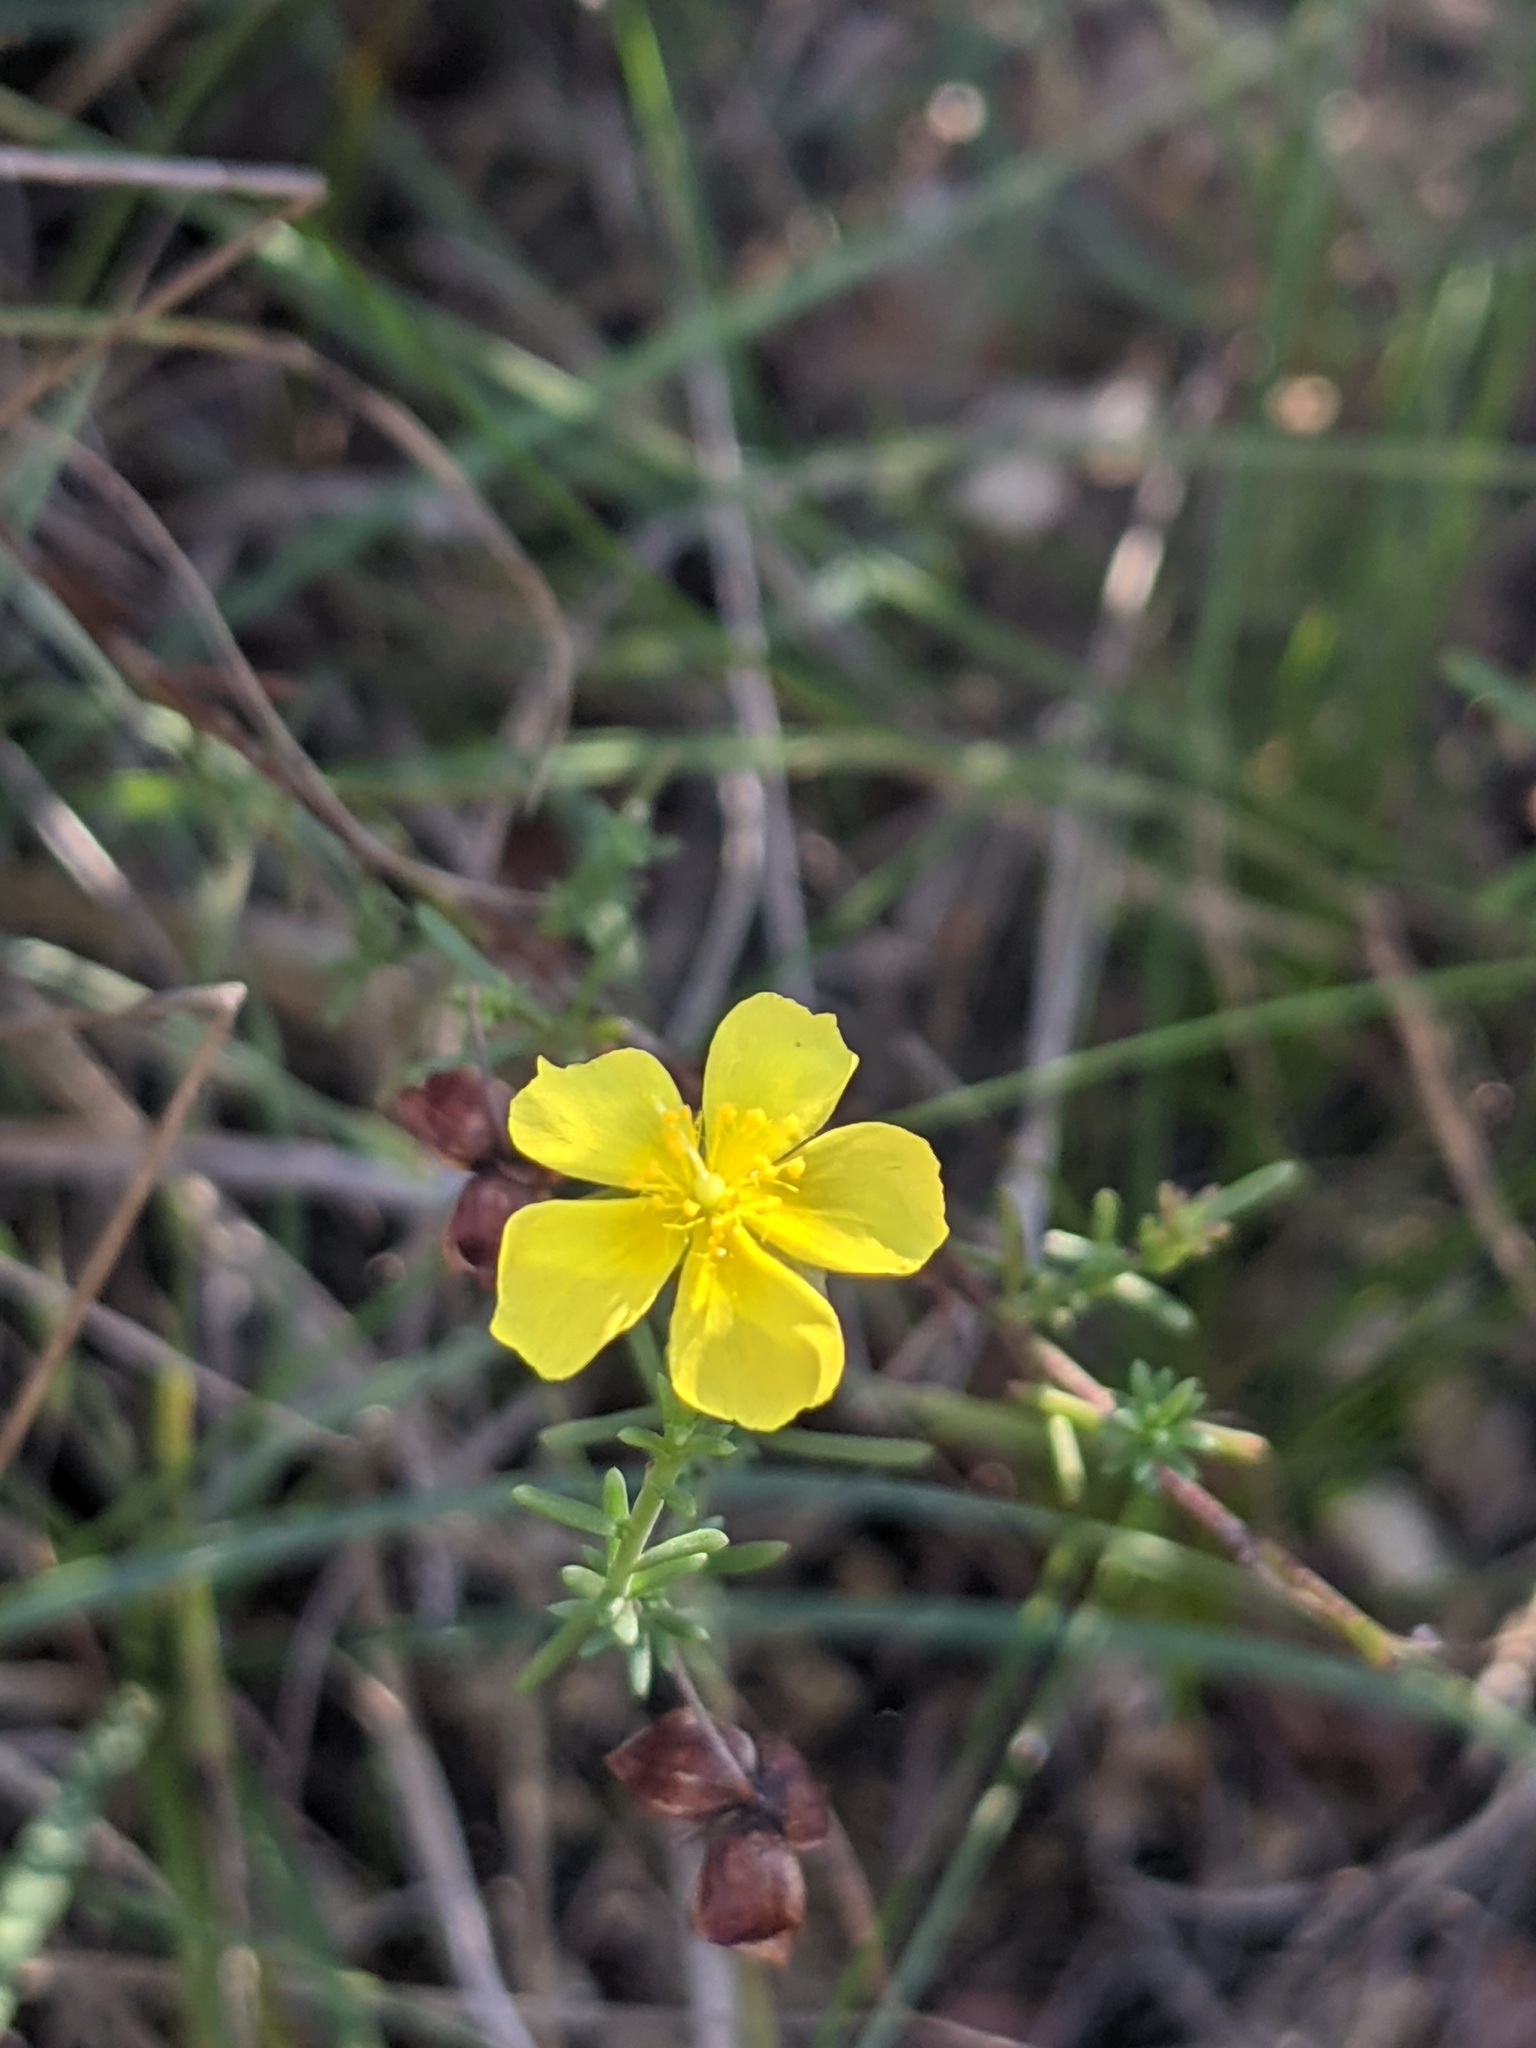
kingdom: Plantae
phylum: Tracheophyta
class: Magnoliopsida
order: Malvales
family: Cistaceae
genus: Fumana
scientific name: Fumana ericifolia
